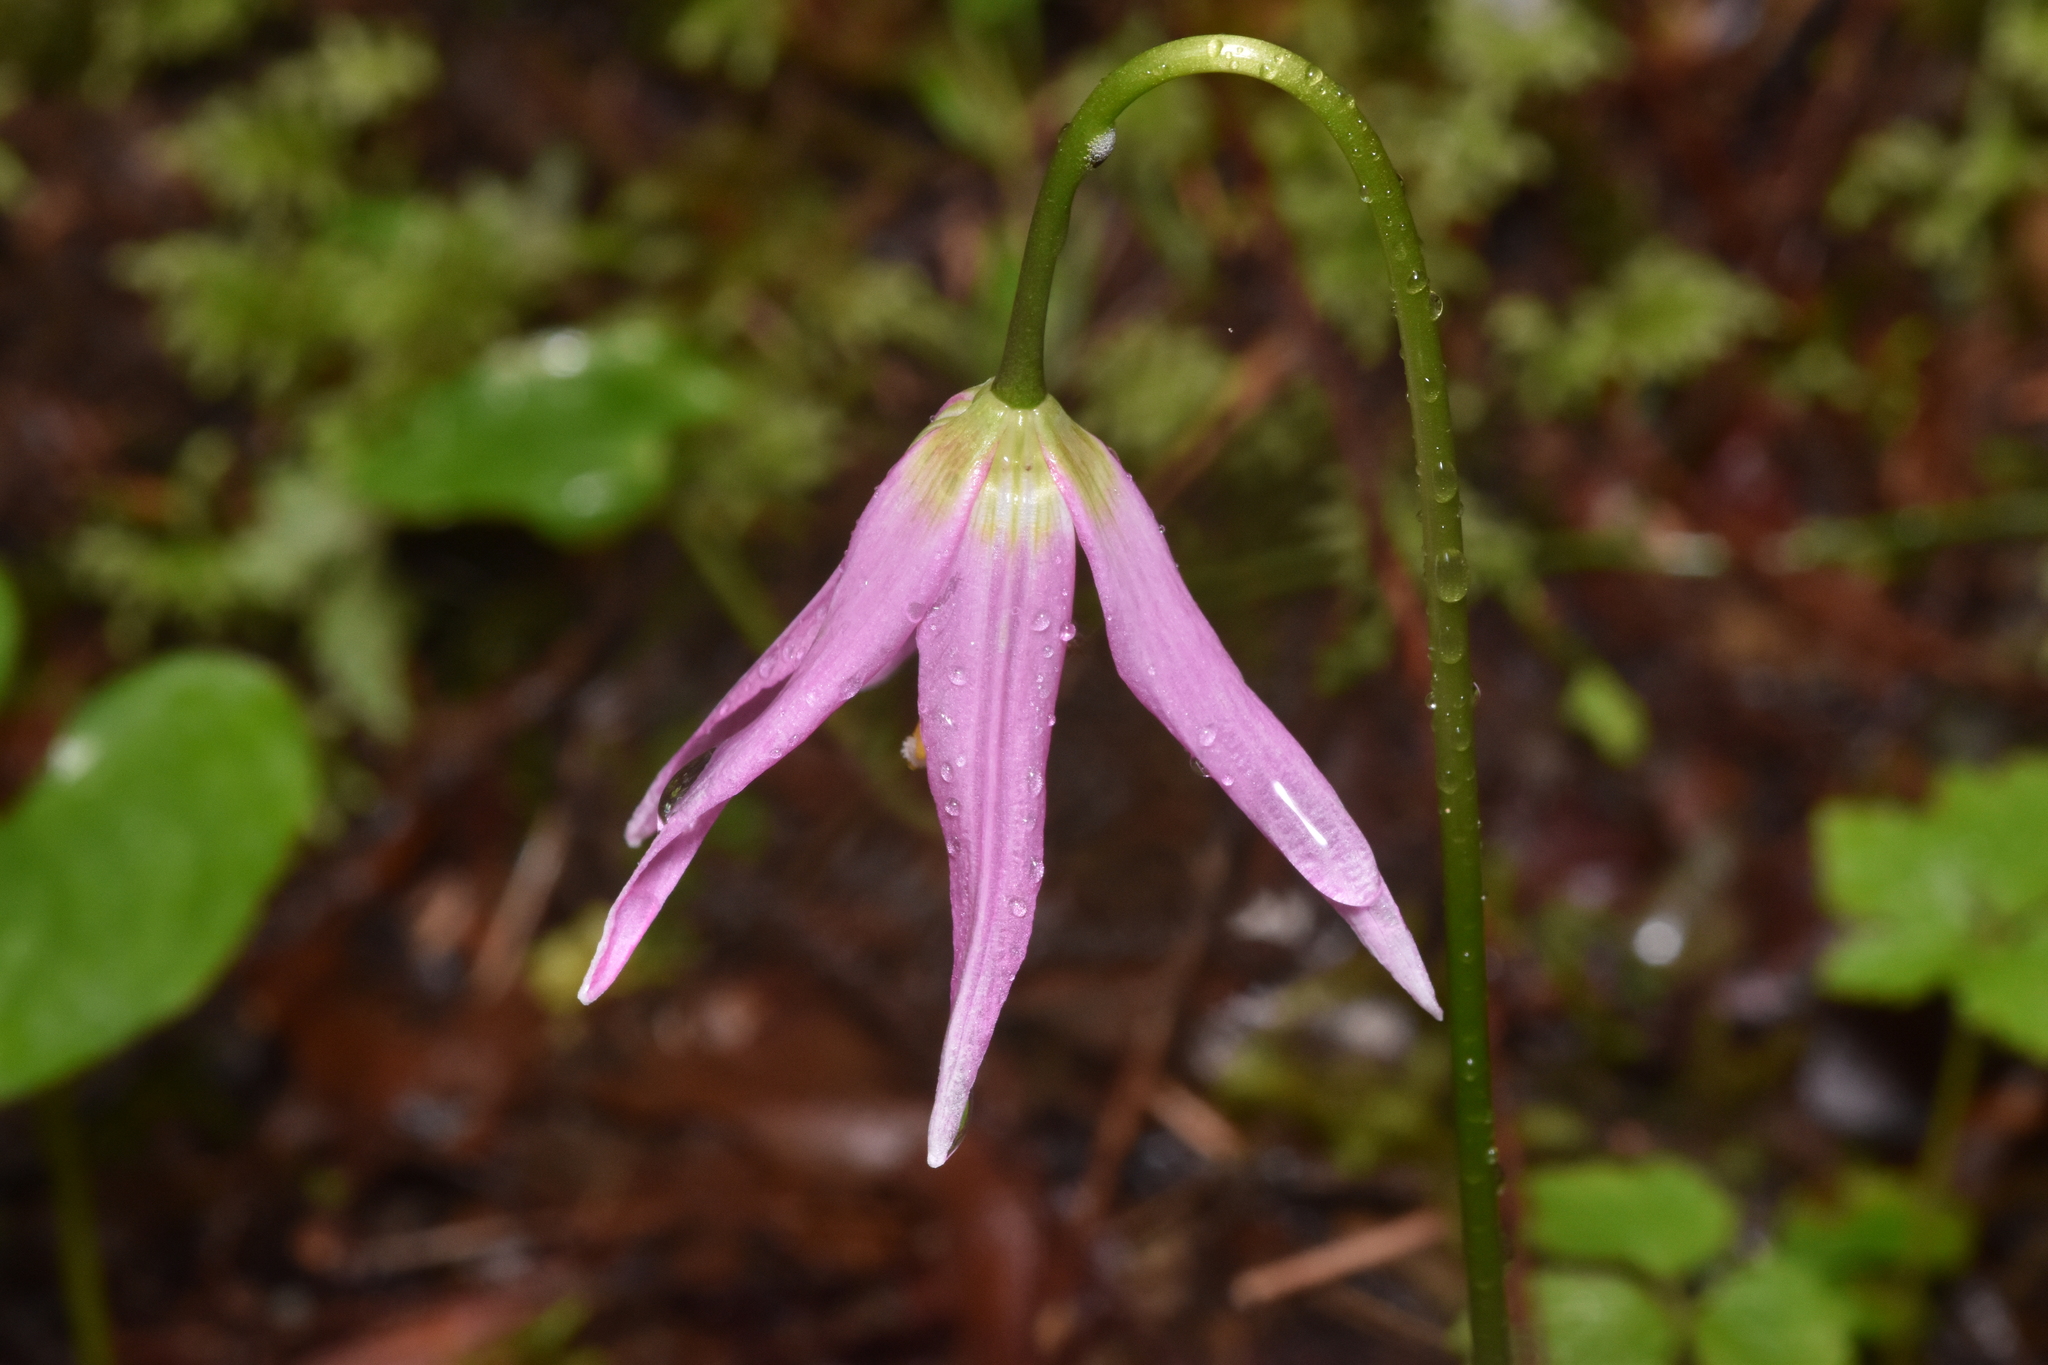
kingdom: Plantae
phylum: Tracheophyta
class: Liliopsida
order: Liliales
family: Liliaceae
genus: Erythronium
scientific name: Erythronium revolutum
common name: Pink fawn-lily
